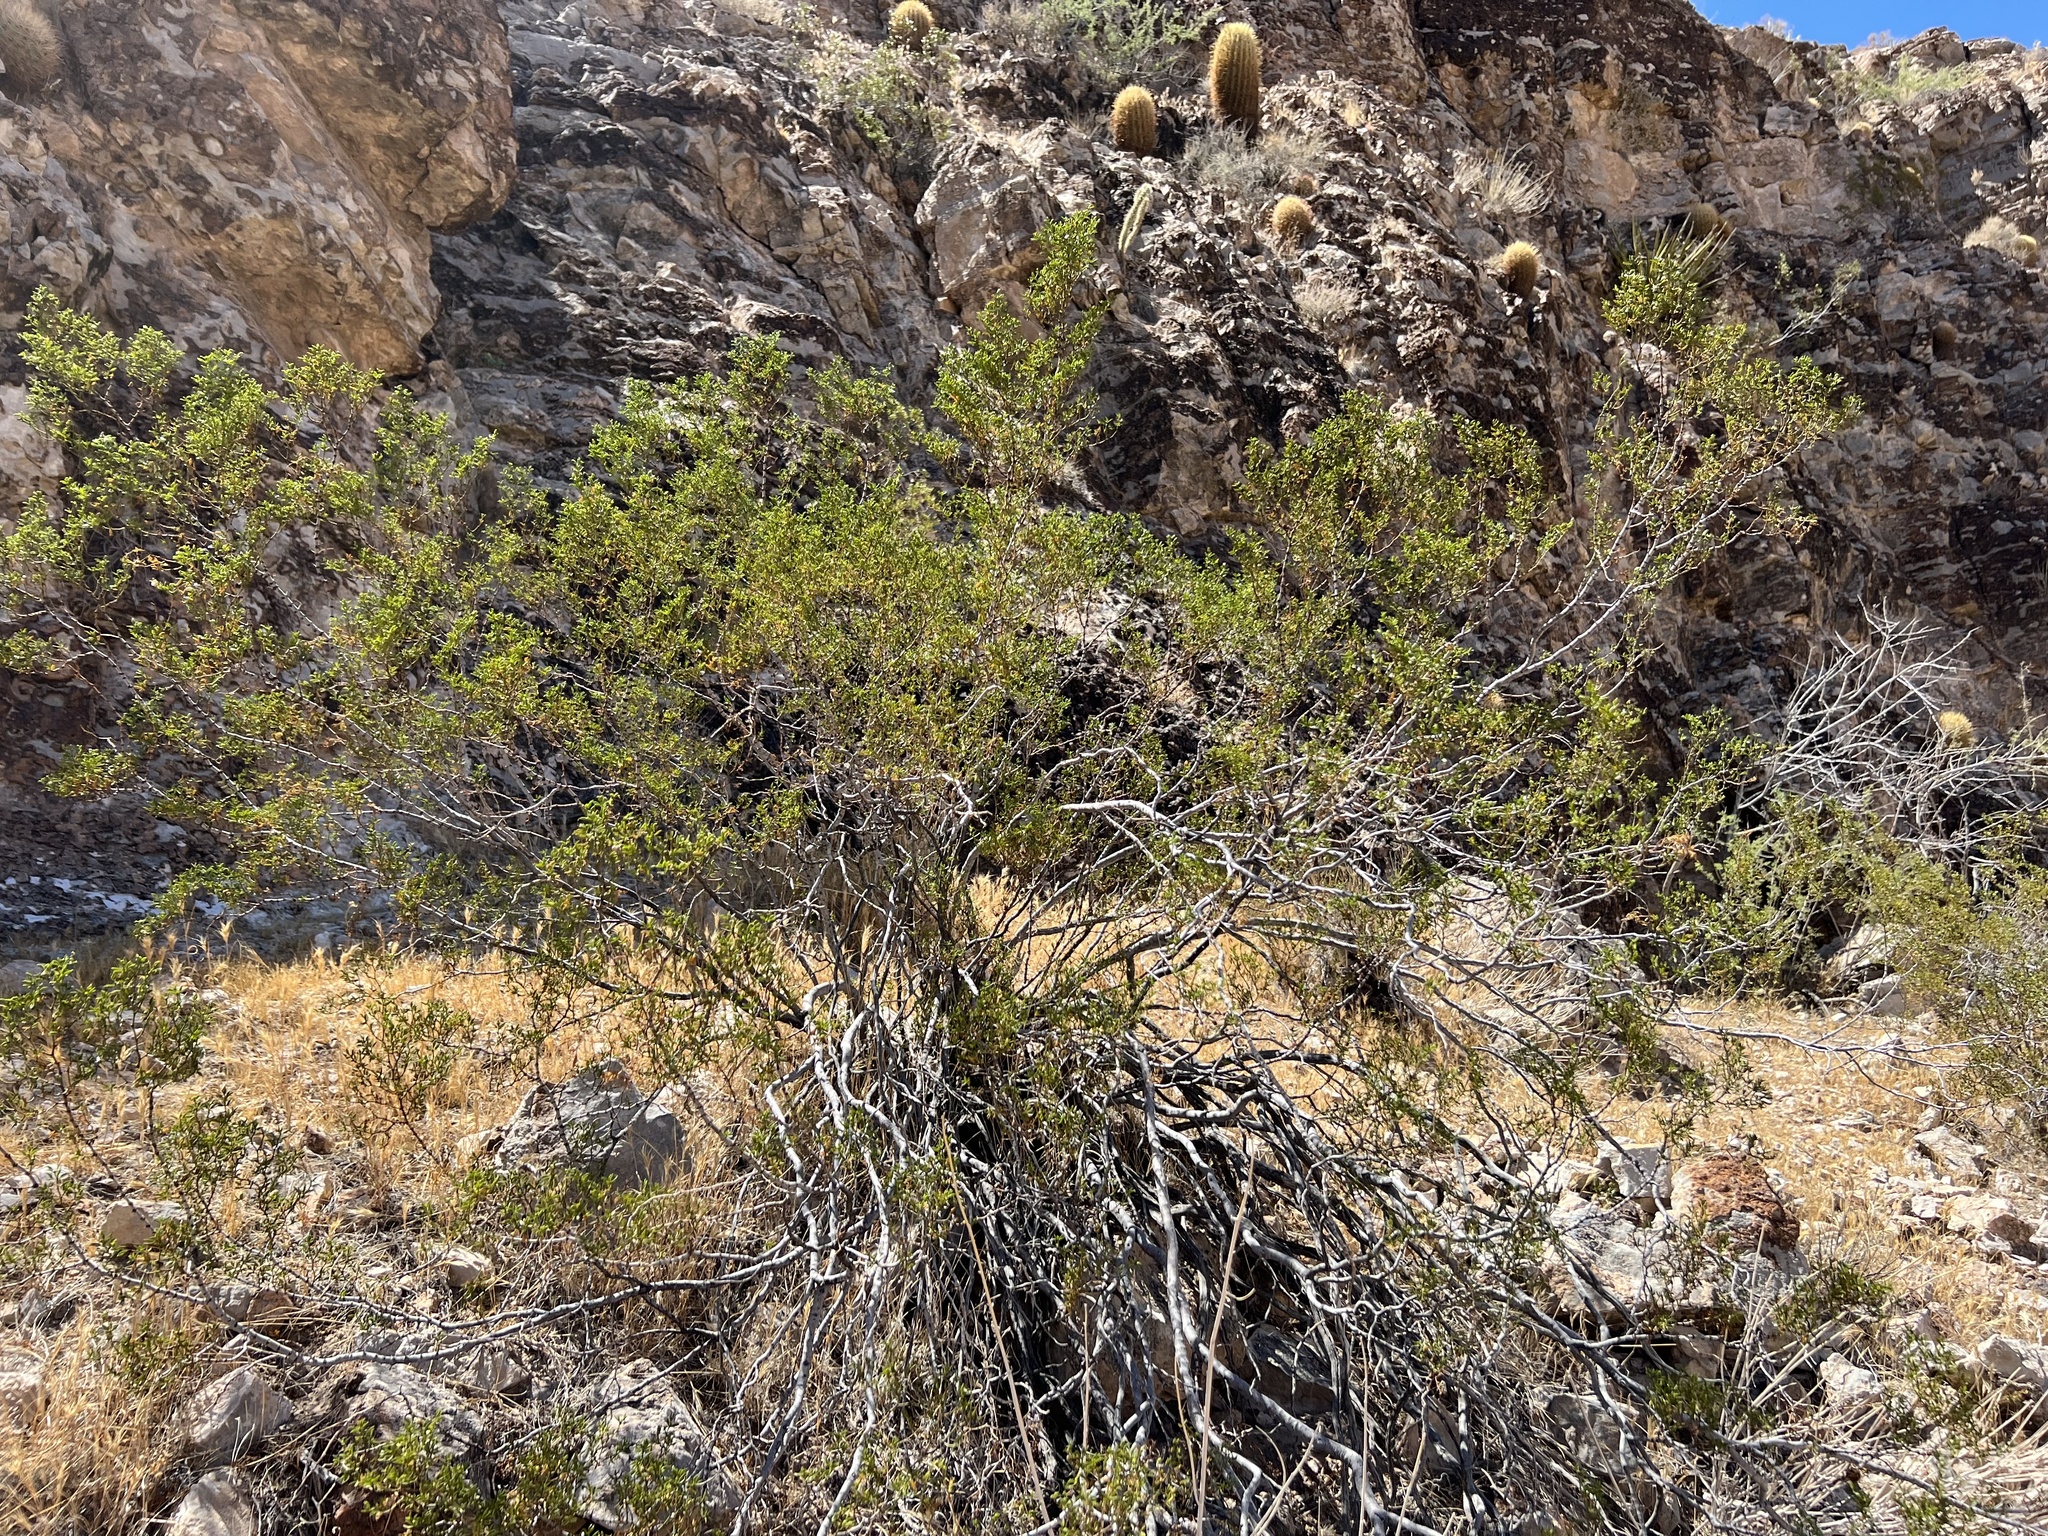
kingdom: Plantae
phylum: Tracheophyta
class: Magnoliopsida
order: Zygophyllales
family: Zygophyllaceae
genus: Larrea
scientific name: Larrea tridentata
